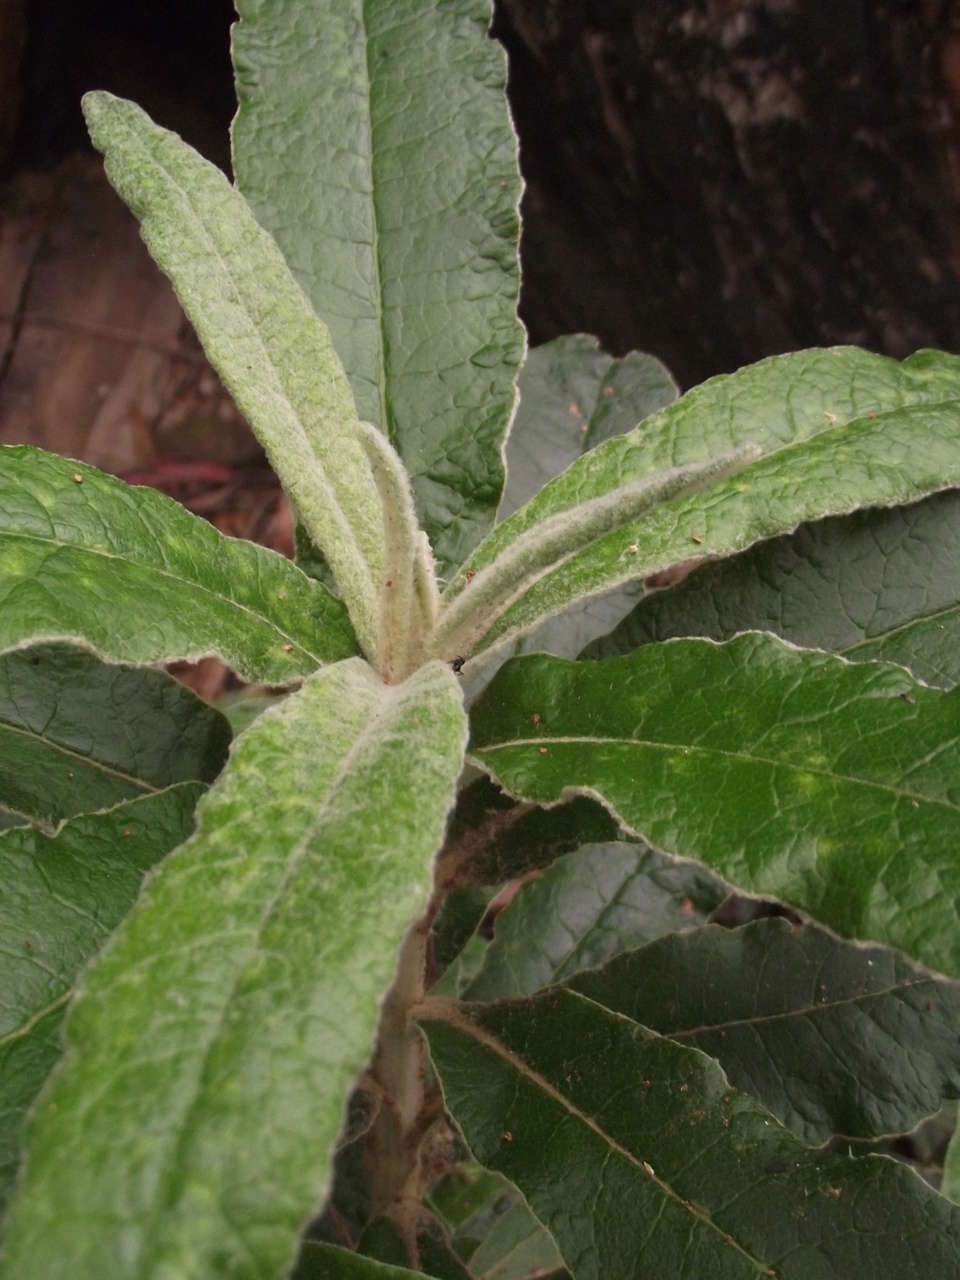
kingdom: Plantae
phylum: Tracheophyta
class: Magnoliopsida
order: Asterales
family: Asteraceae
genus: Bedfordia
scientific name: Bedfordia arborescens
